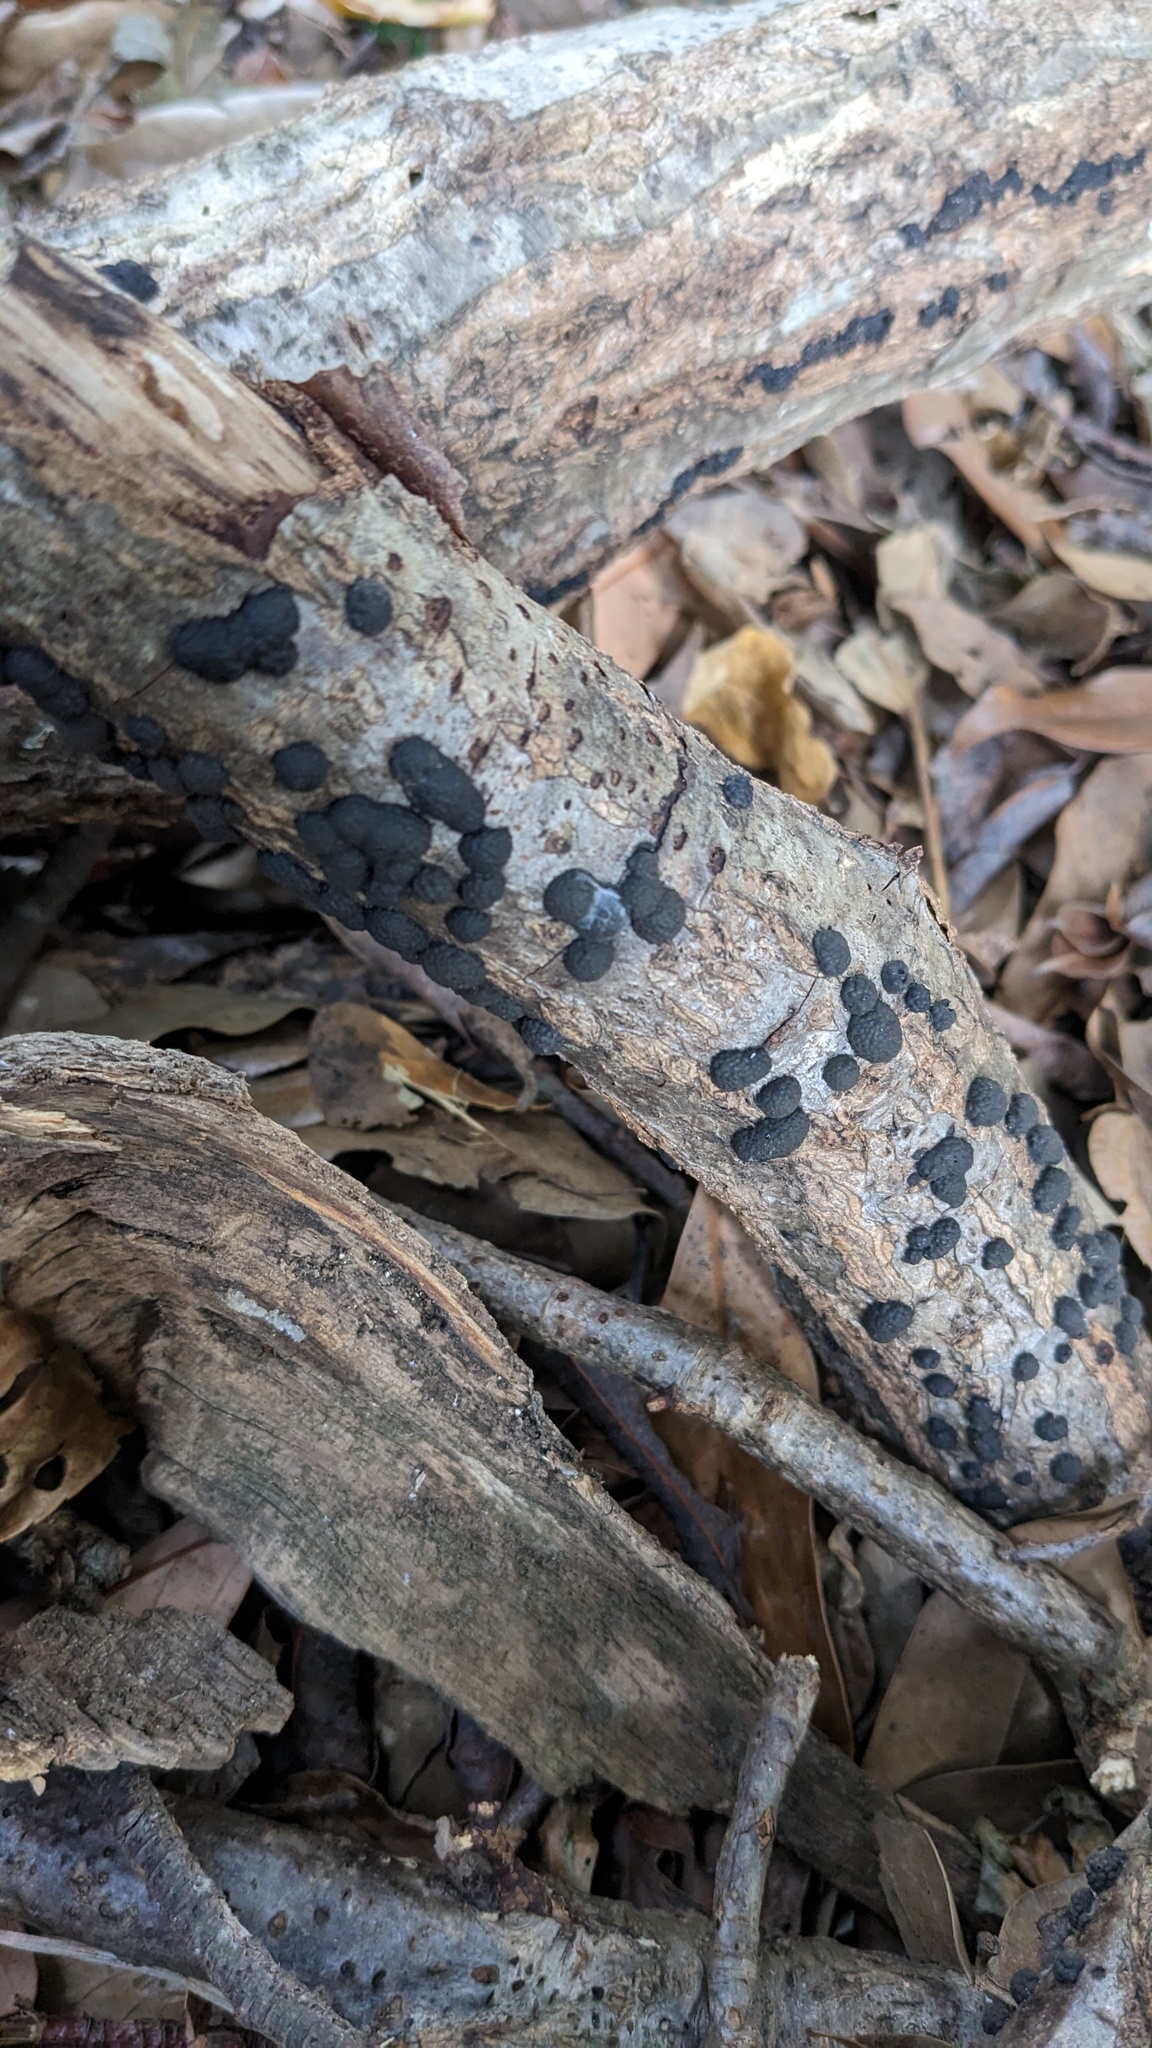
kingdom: Fungi
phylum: Ascomycota
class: Sordariomycetes
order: Xylariales
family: Hypoxylaceae
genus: Annulohypoxylon
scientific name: Annulohypoxylon truncatum
